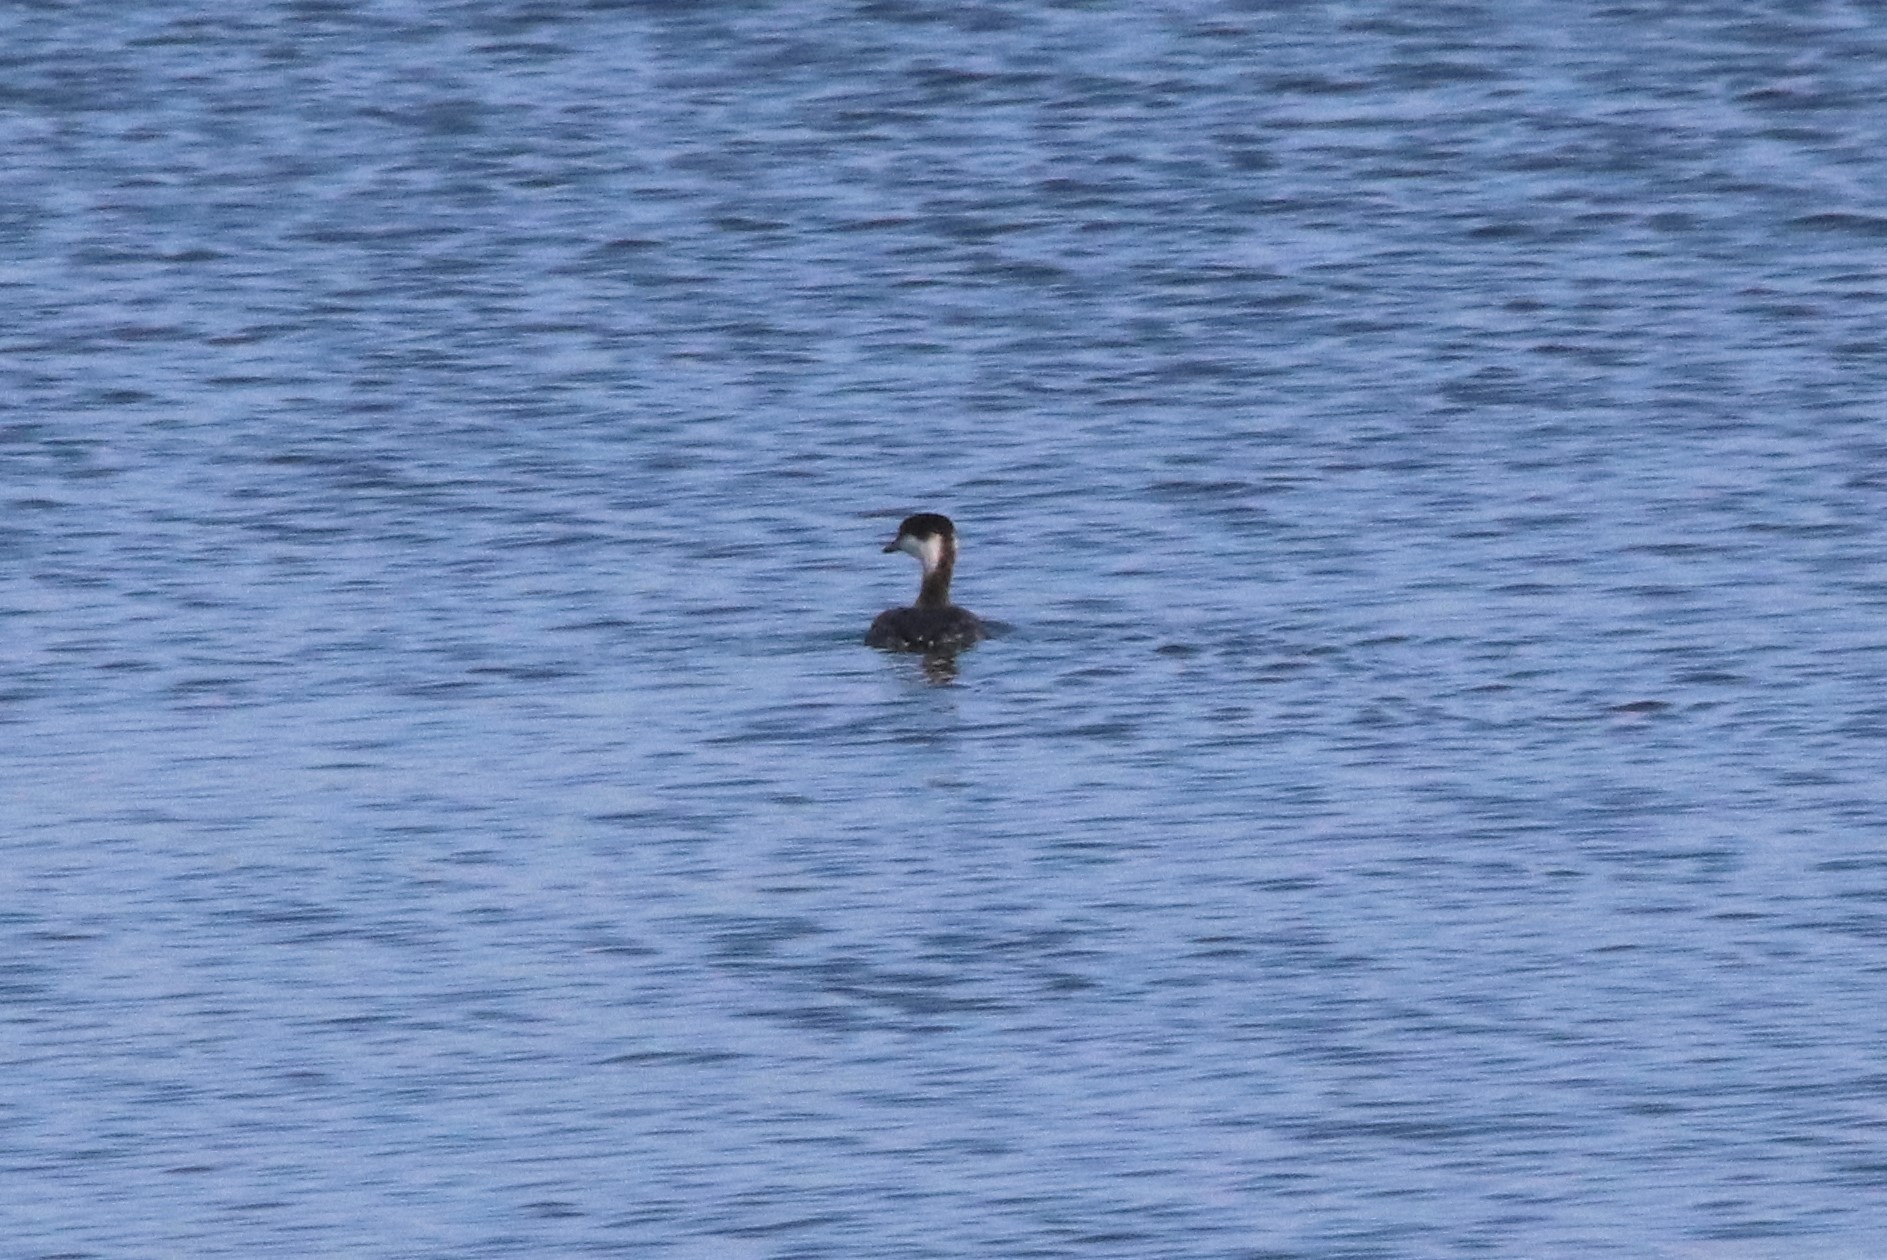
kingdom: Animalia
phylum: Chordata
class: Aves
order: Podicipediformes
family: Podicipedidae
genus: Podiceps
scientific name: Podiceps auritus
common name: Horned grebe
